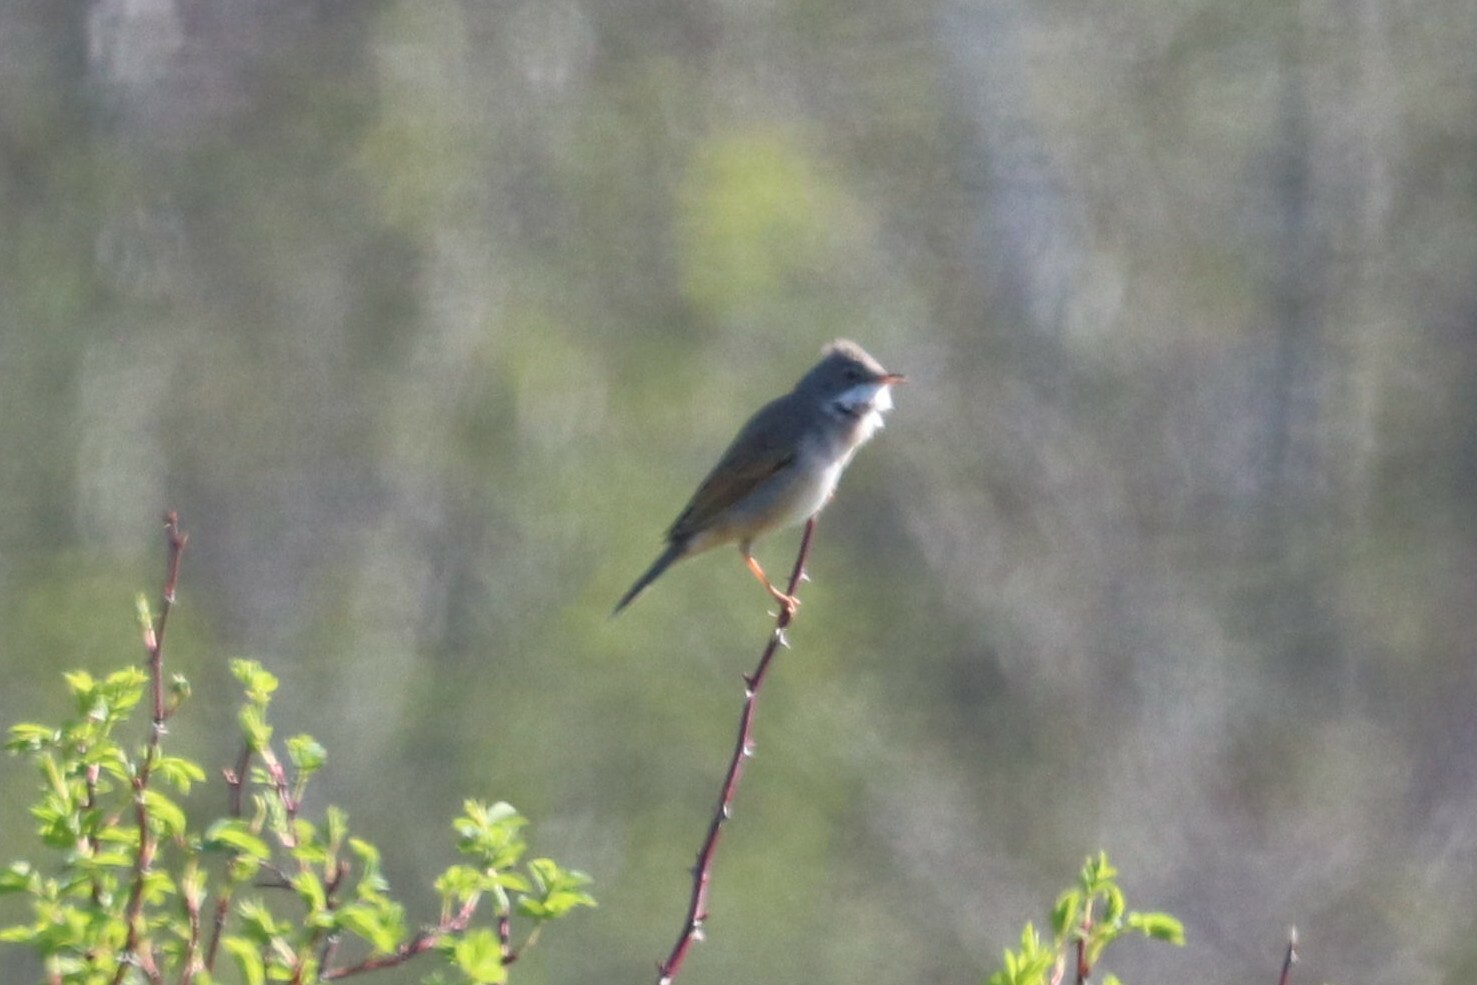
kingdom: Animalia
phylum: Chordata
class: Aves
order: Passeriformes
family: Sylviidae
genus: Sylvia
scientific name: Sylvia communis
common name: Common whitethroat
